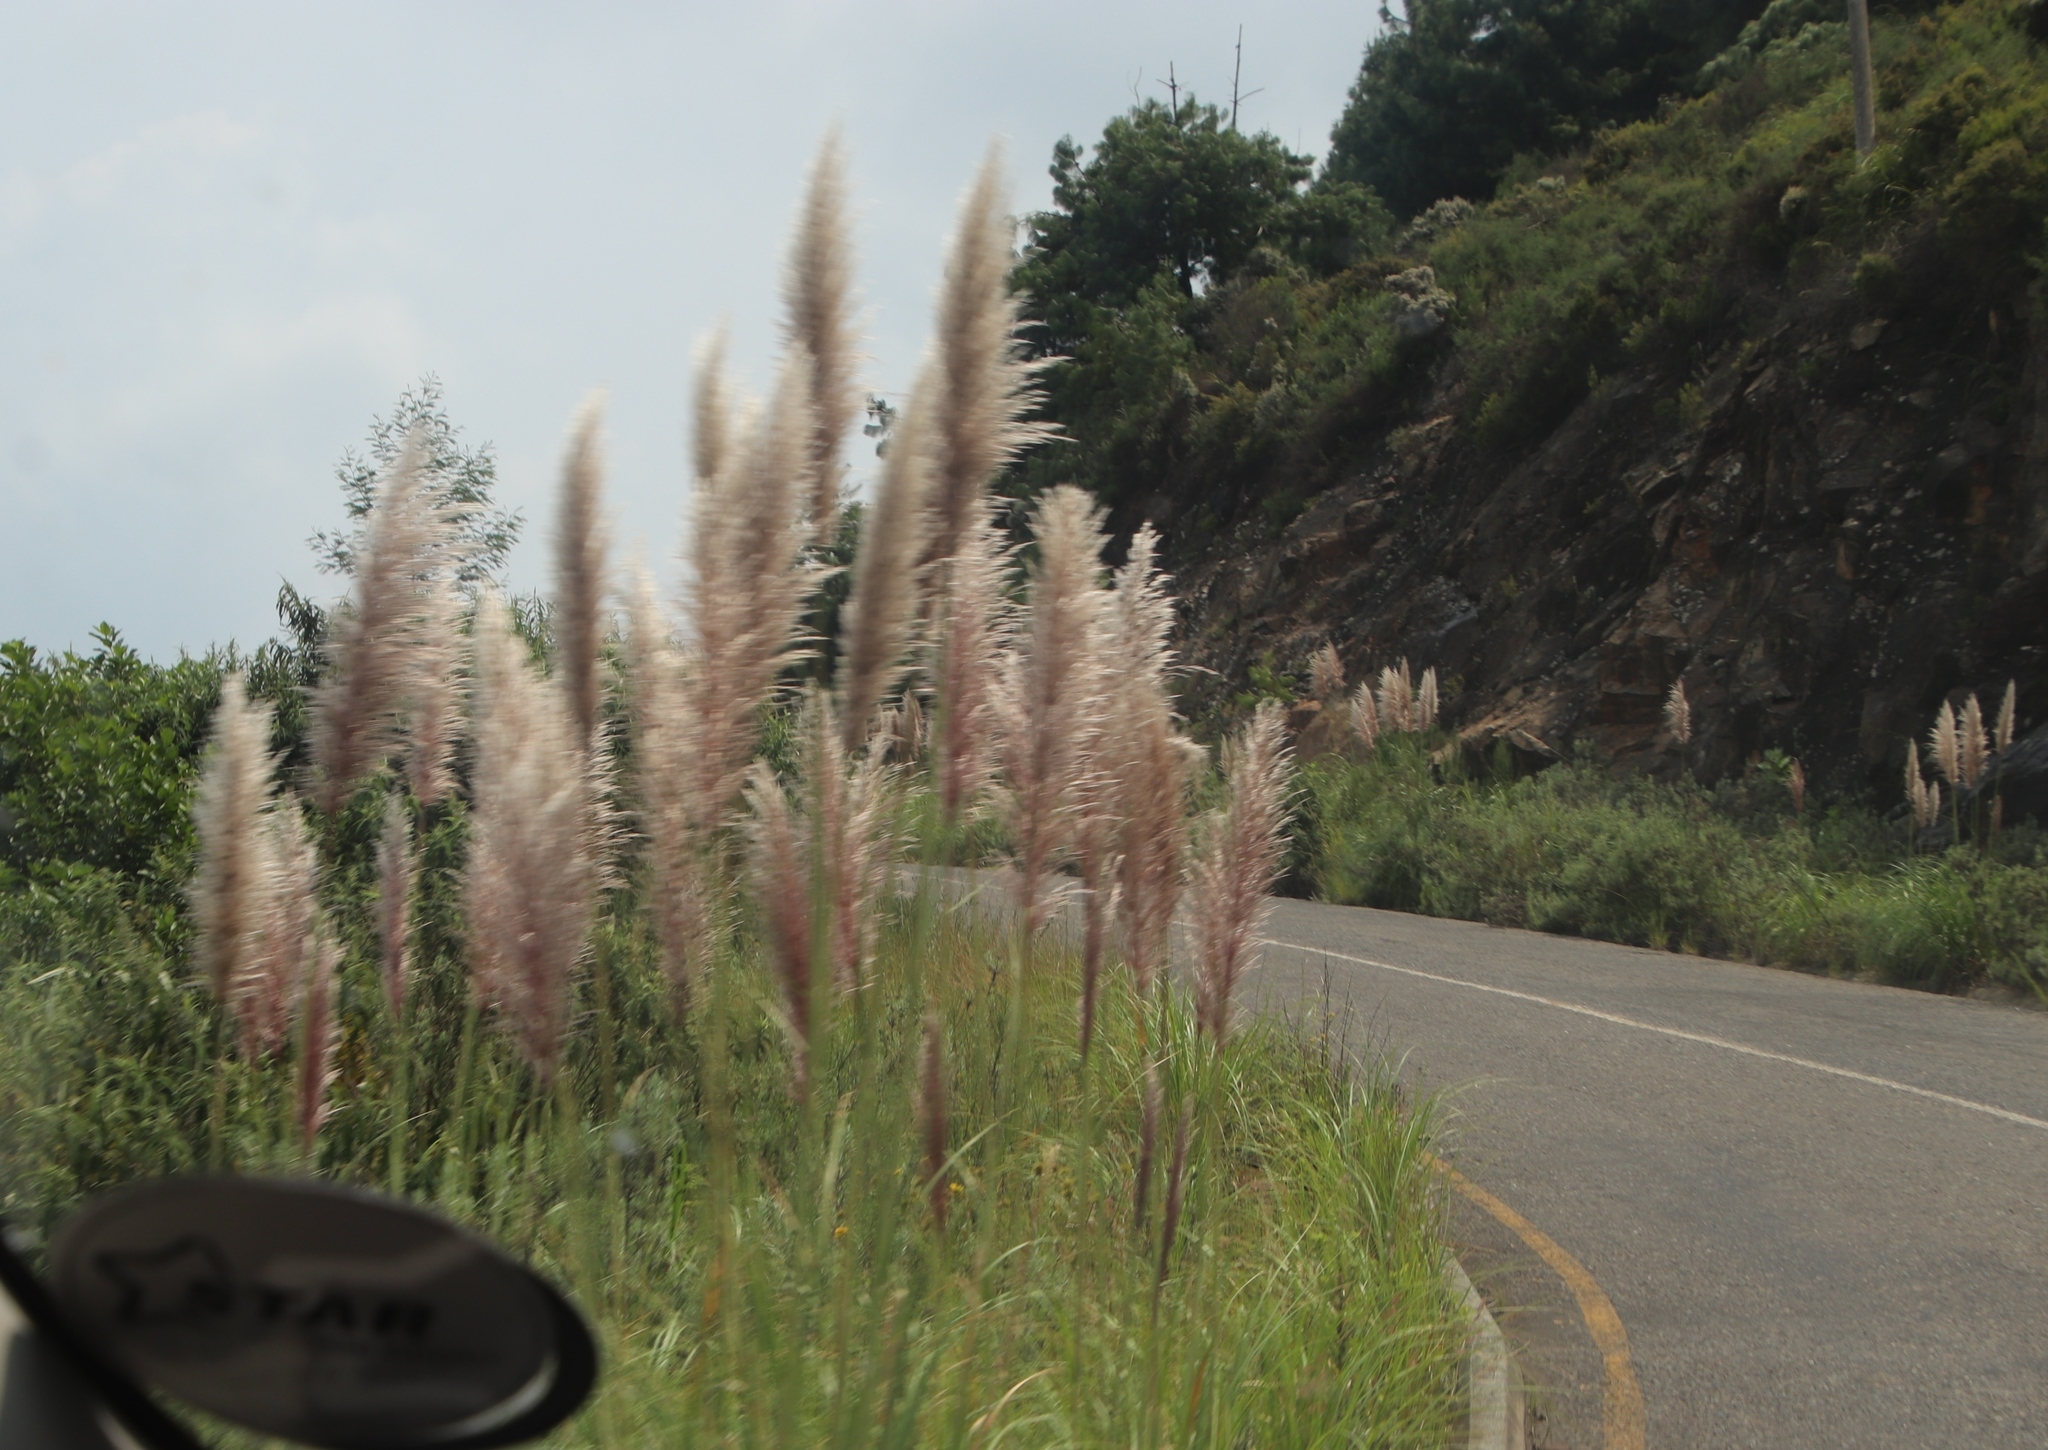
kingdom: Plantae
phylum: Tracheophyta
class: Liliopsida
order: Poales
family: Poaceae
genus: Cortaderia
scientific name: Cortaderia selloana
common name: Uruguayan pampas grass
